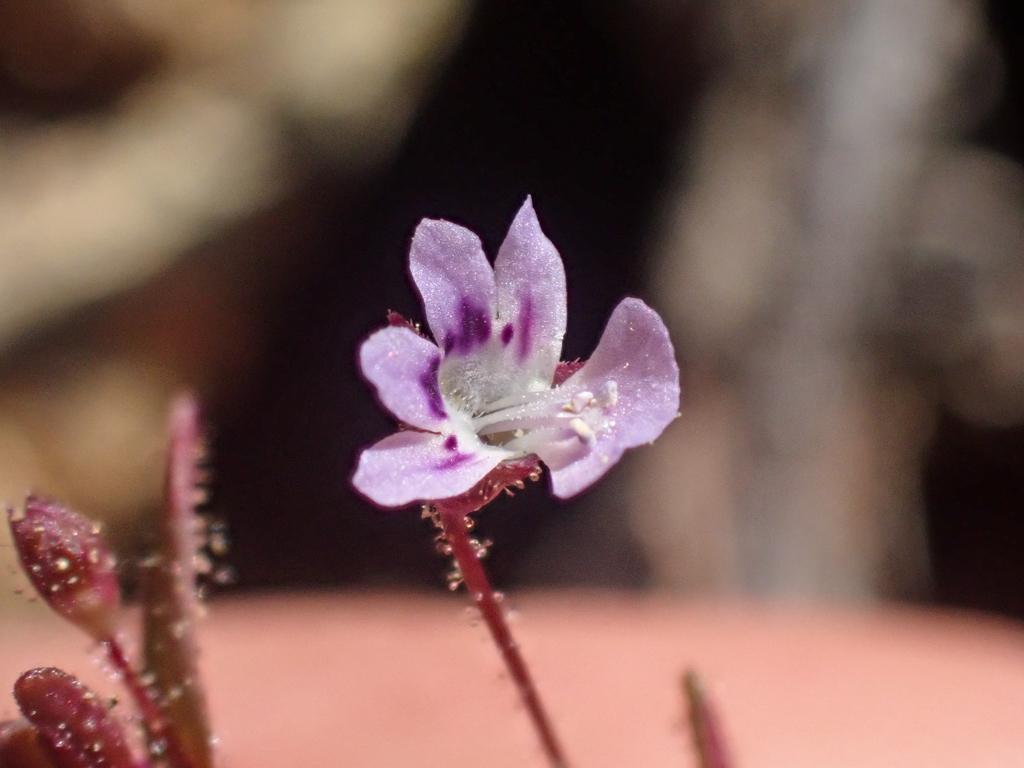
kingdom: Plantae
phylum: Tracheophyta
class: Magnoliopsida
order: Lamiales
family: Plantaginaceae
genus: Tonella
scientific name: Tonella tenella
